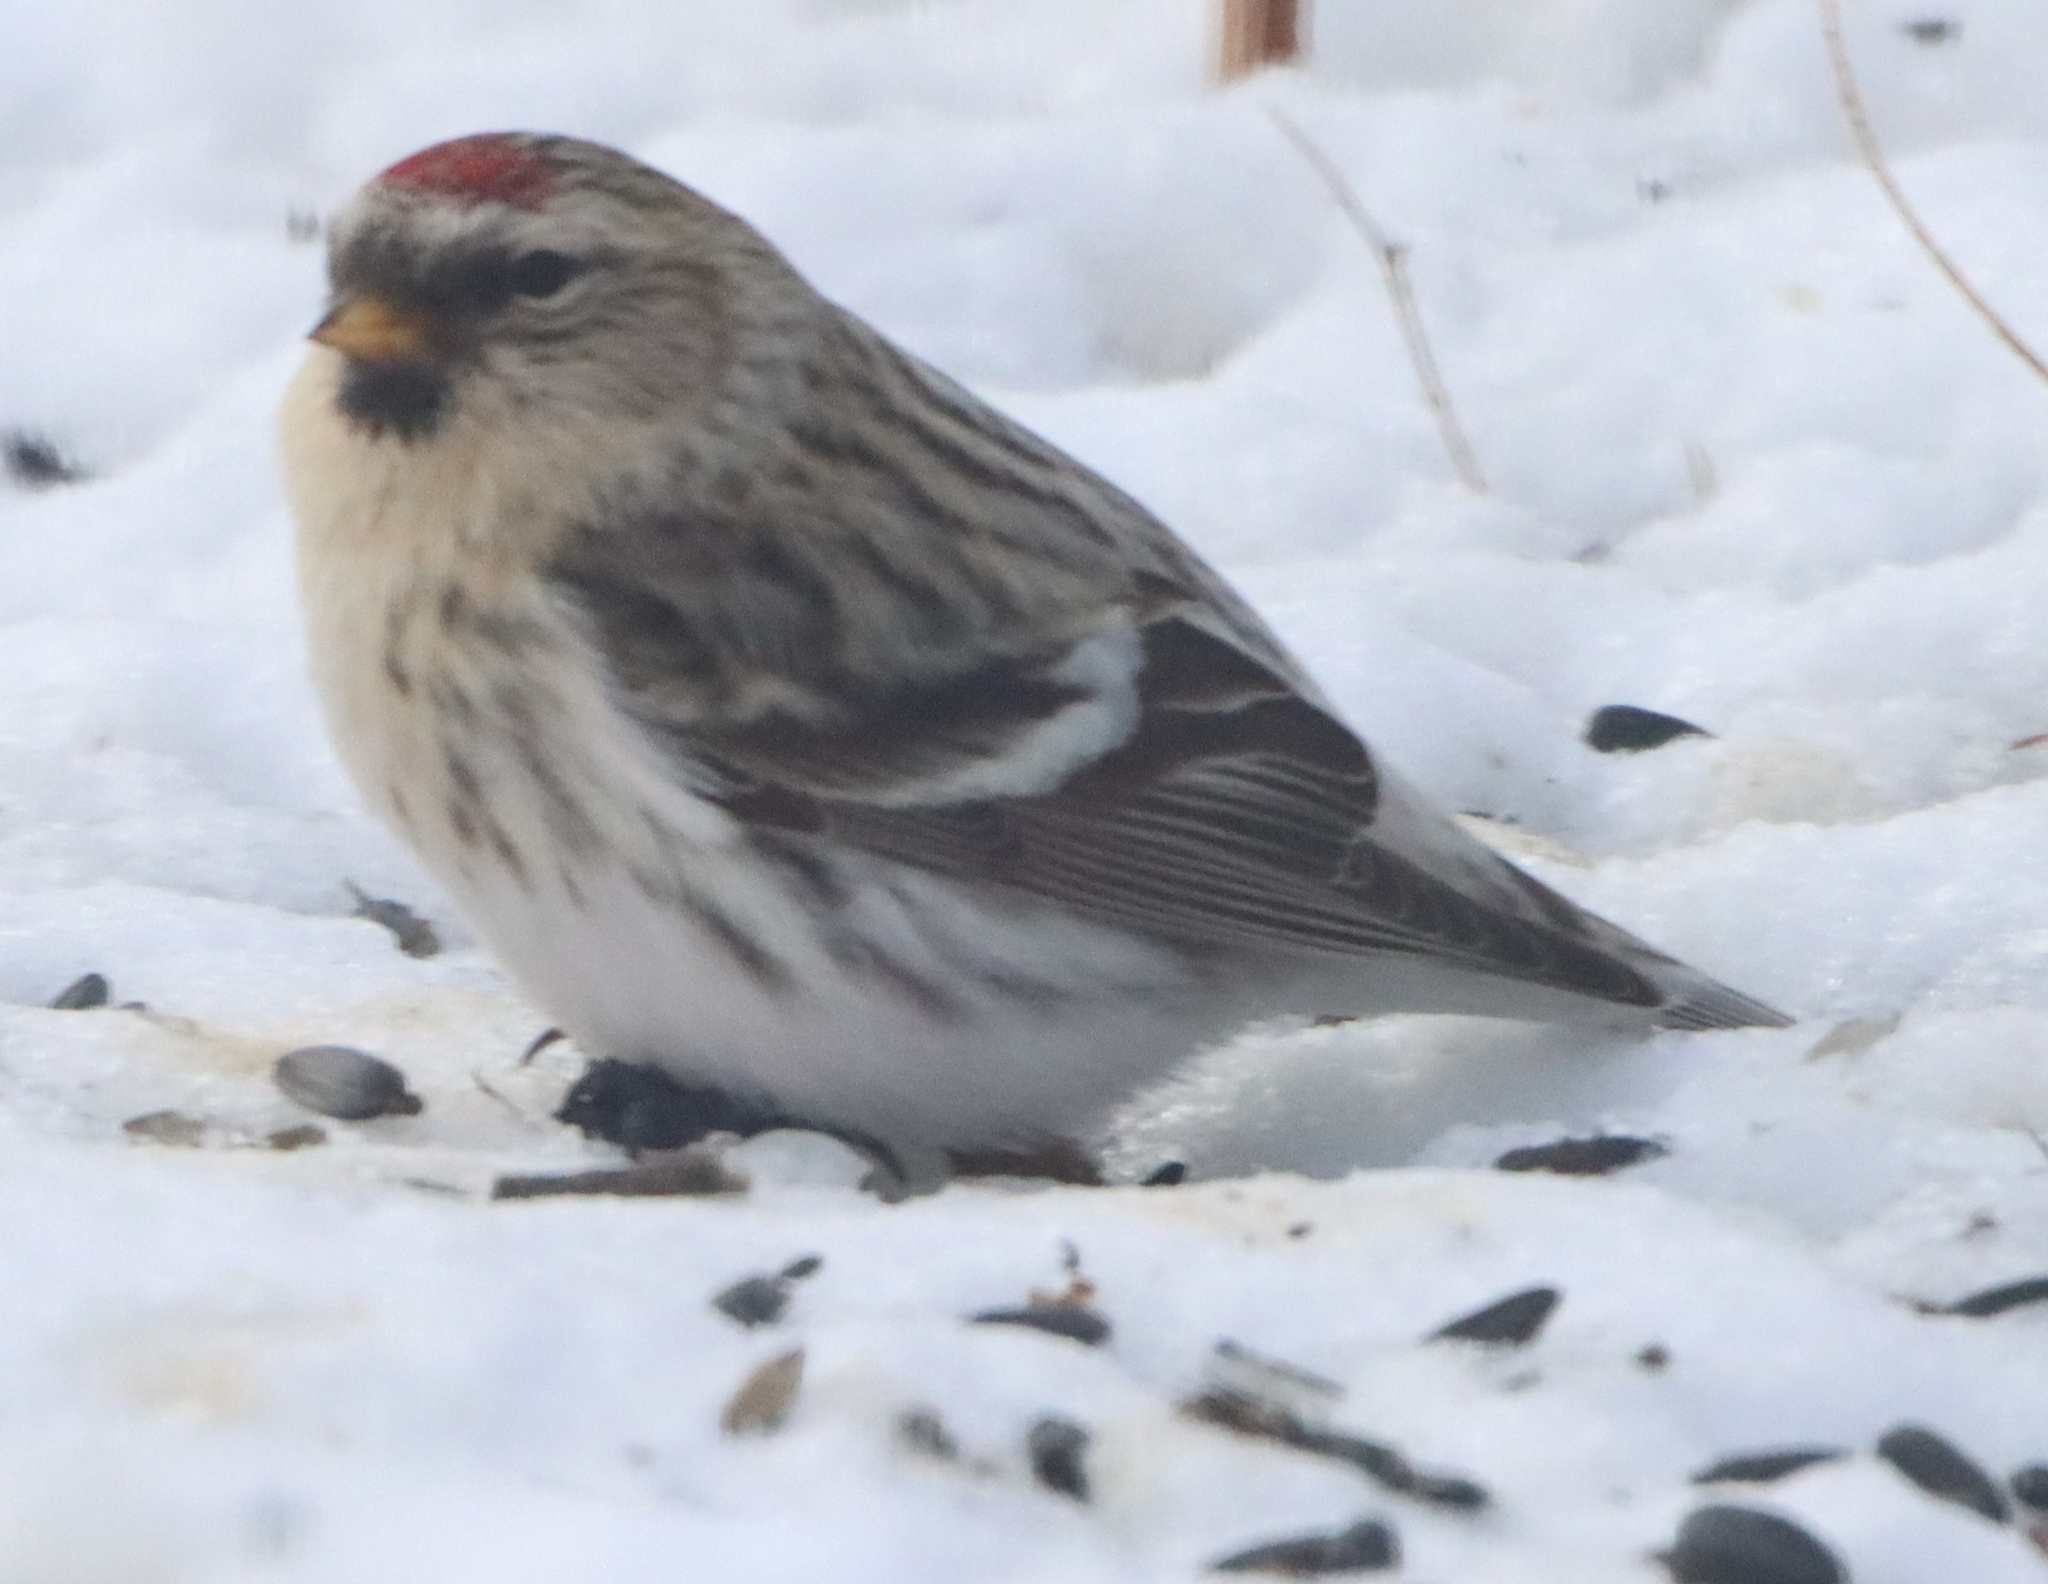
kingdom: Animalia
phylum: Chordata
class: Aves
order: Passeriformes
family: Fringillidae
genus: Acanthis
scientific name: Acanthis hornemanni
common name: Arctic redpoll
